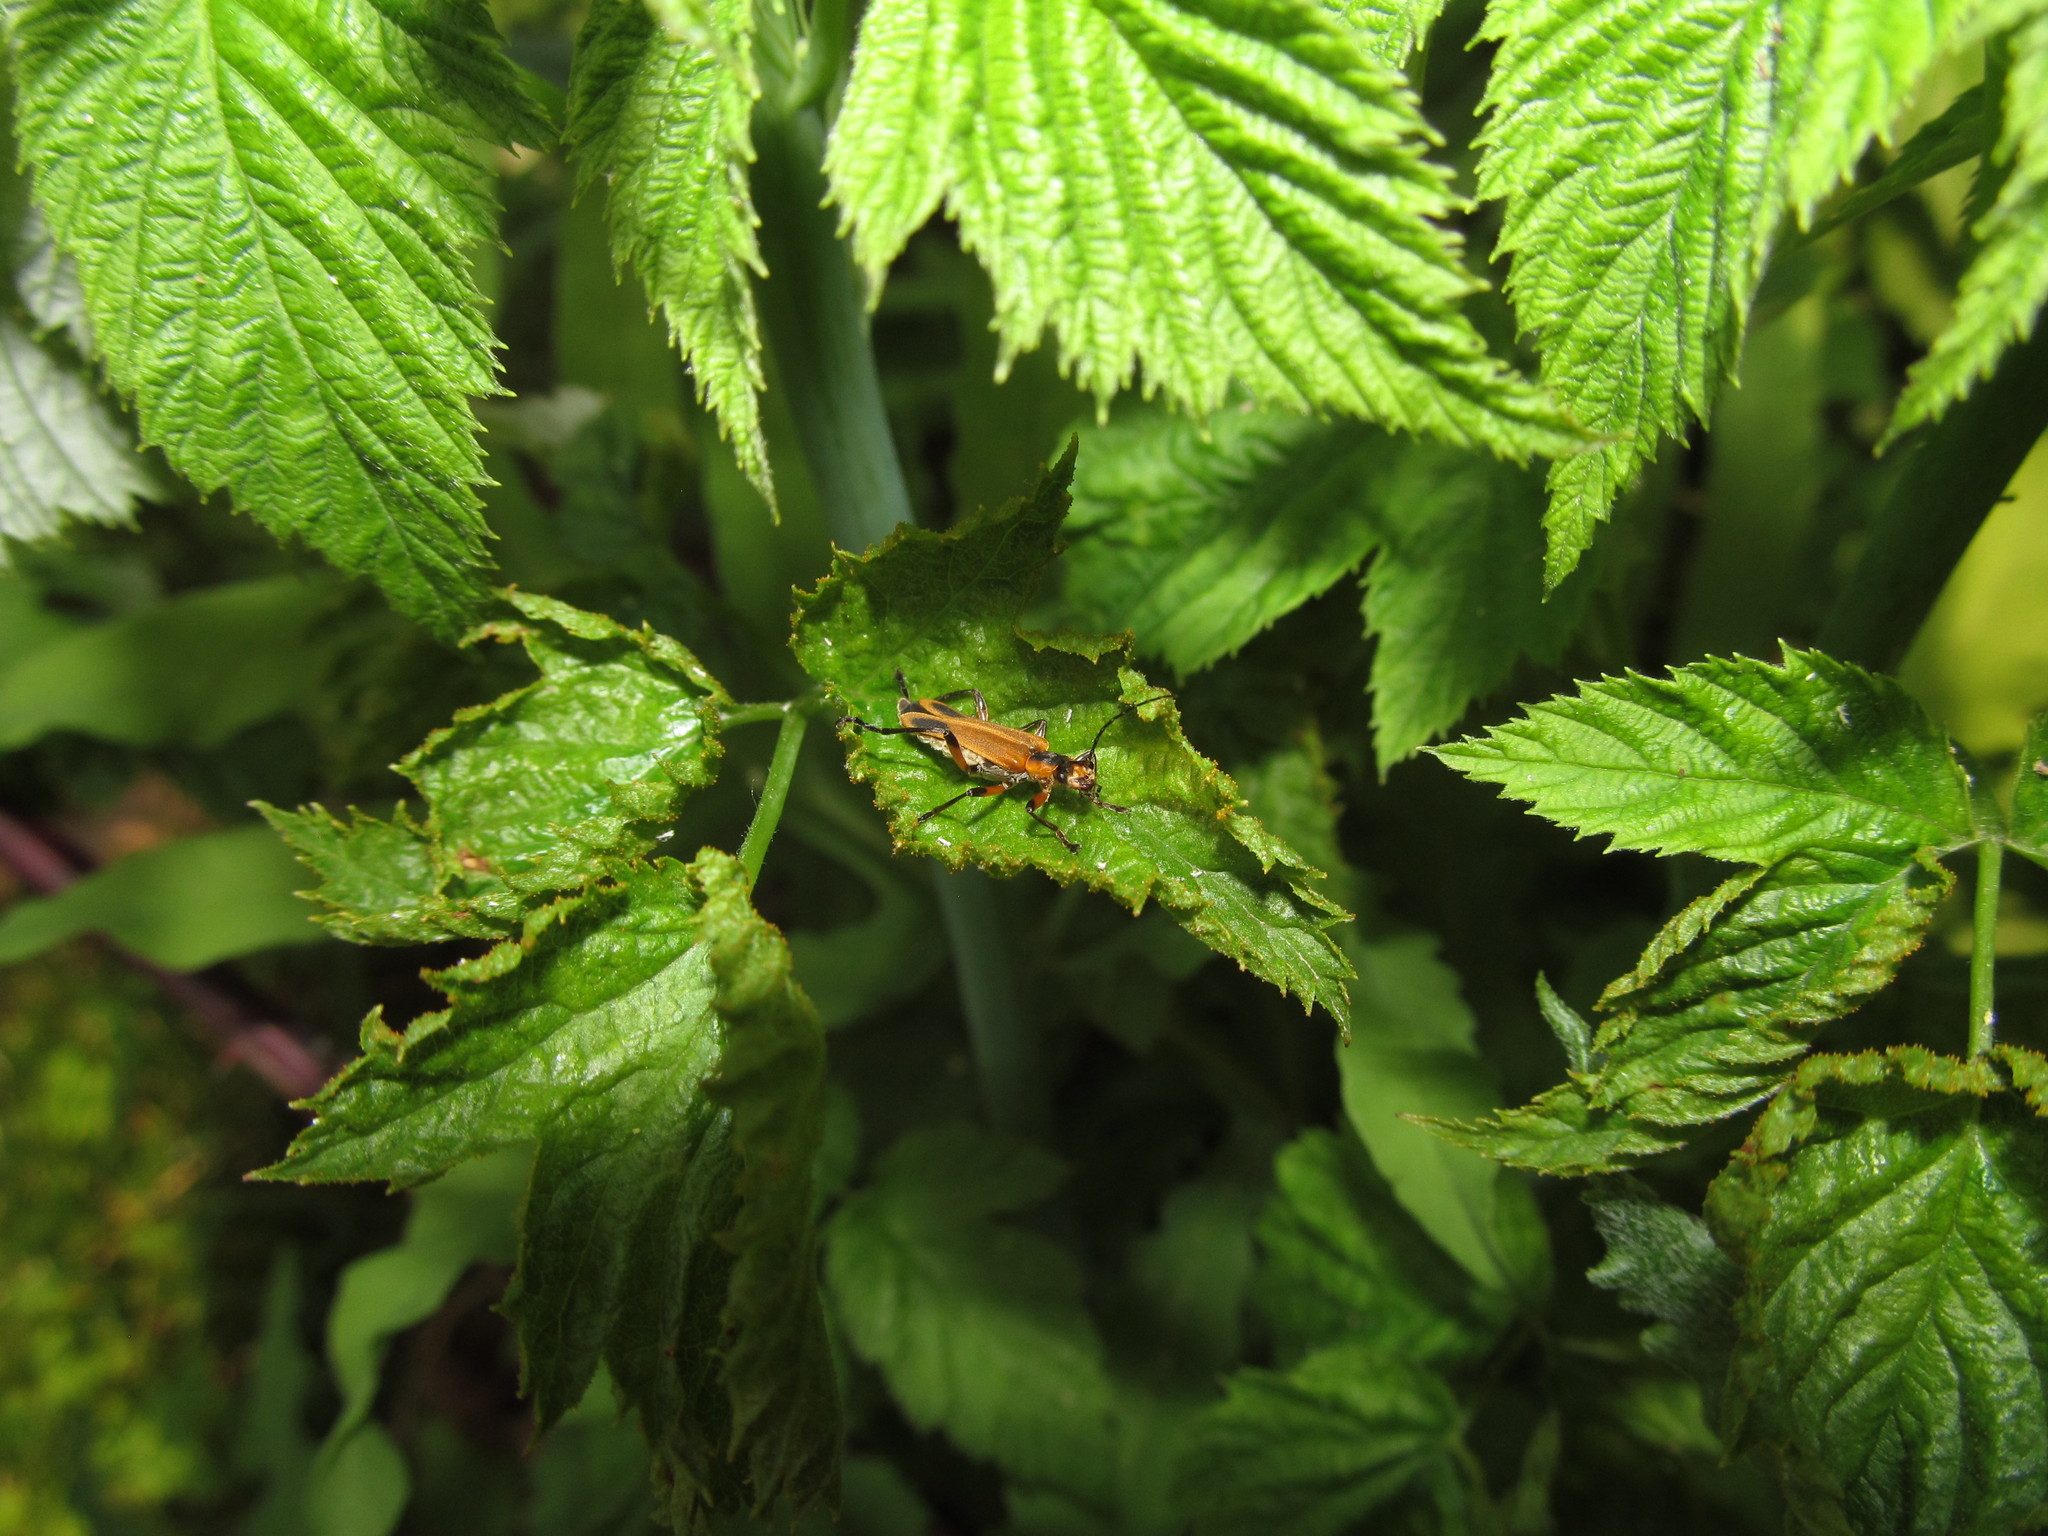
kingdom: Animalia
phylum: Arthropoda
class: Insecta
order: Coleoptera
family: Cantharidae
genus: Chauliognathus
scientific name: Chauliognathus marginatus
